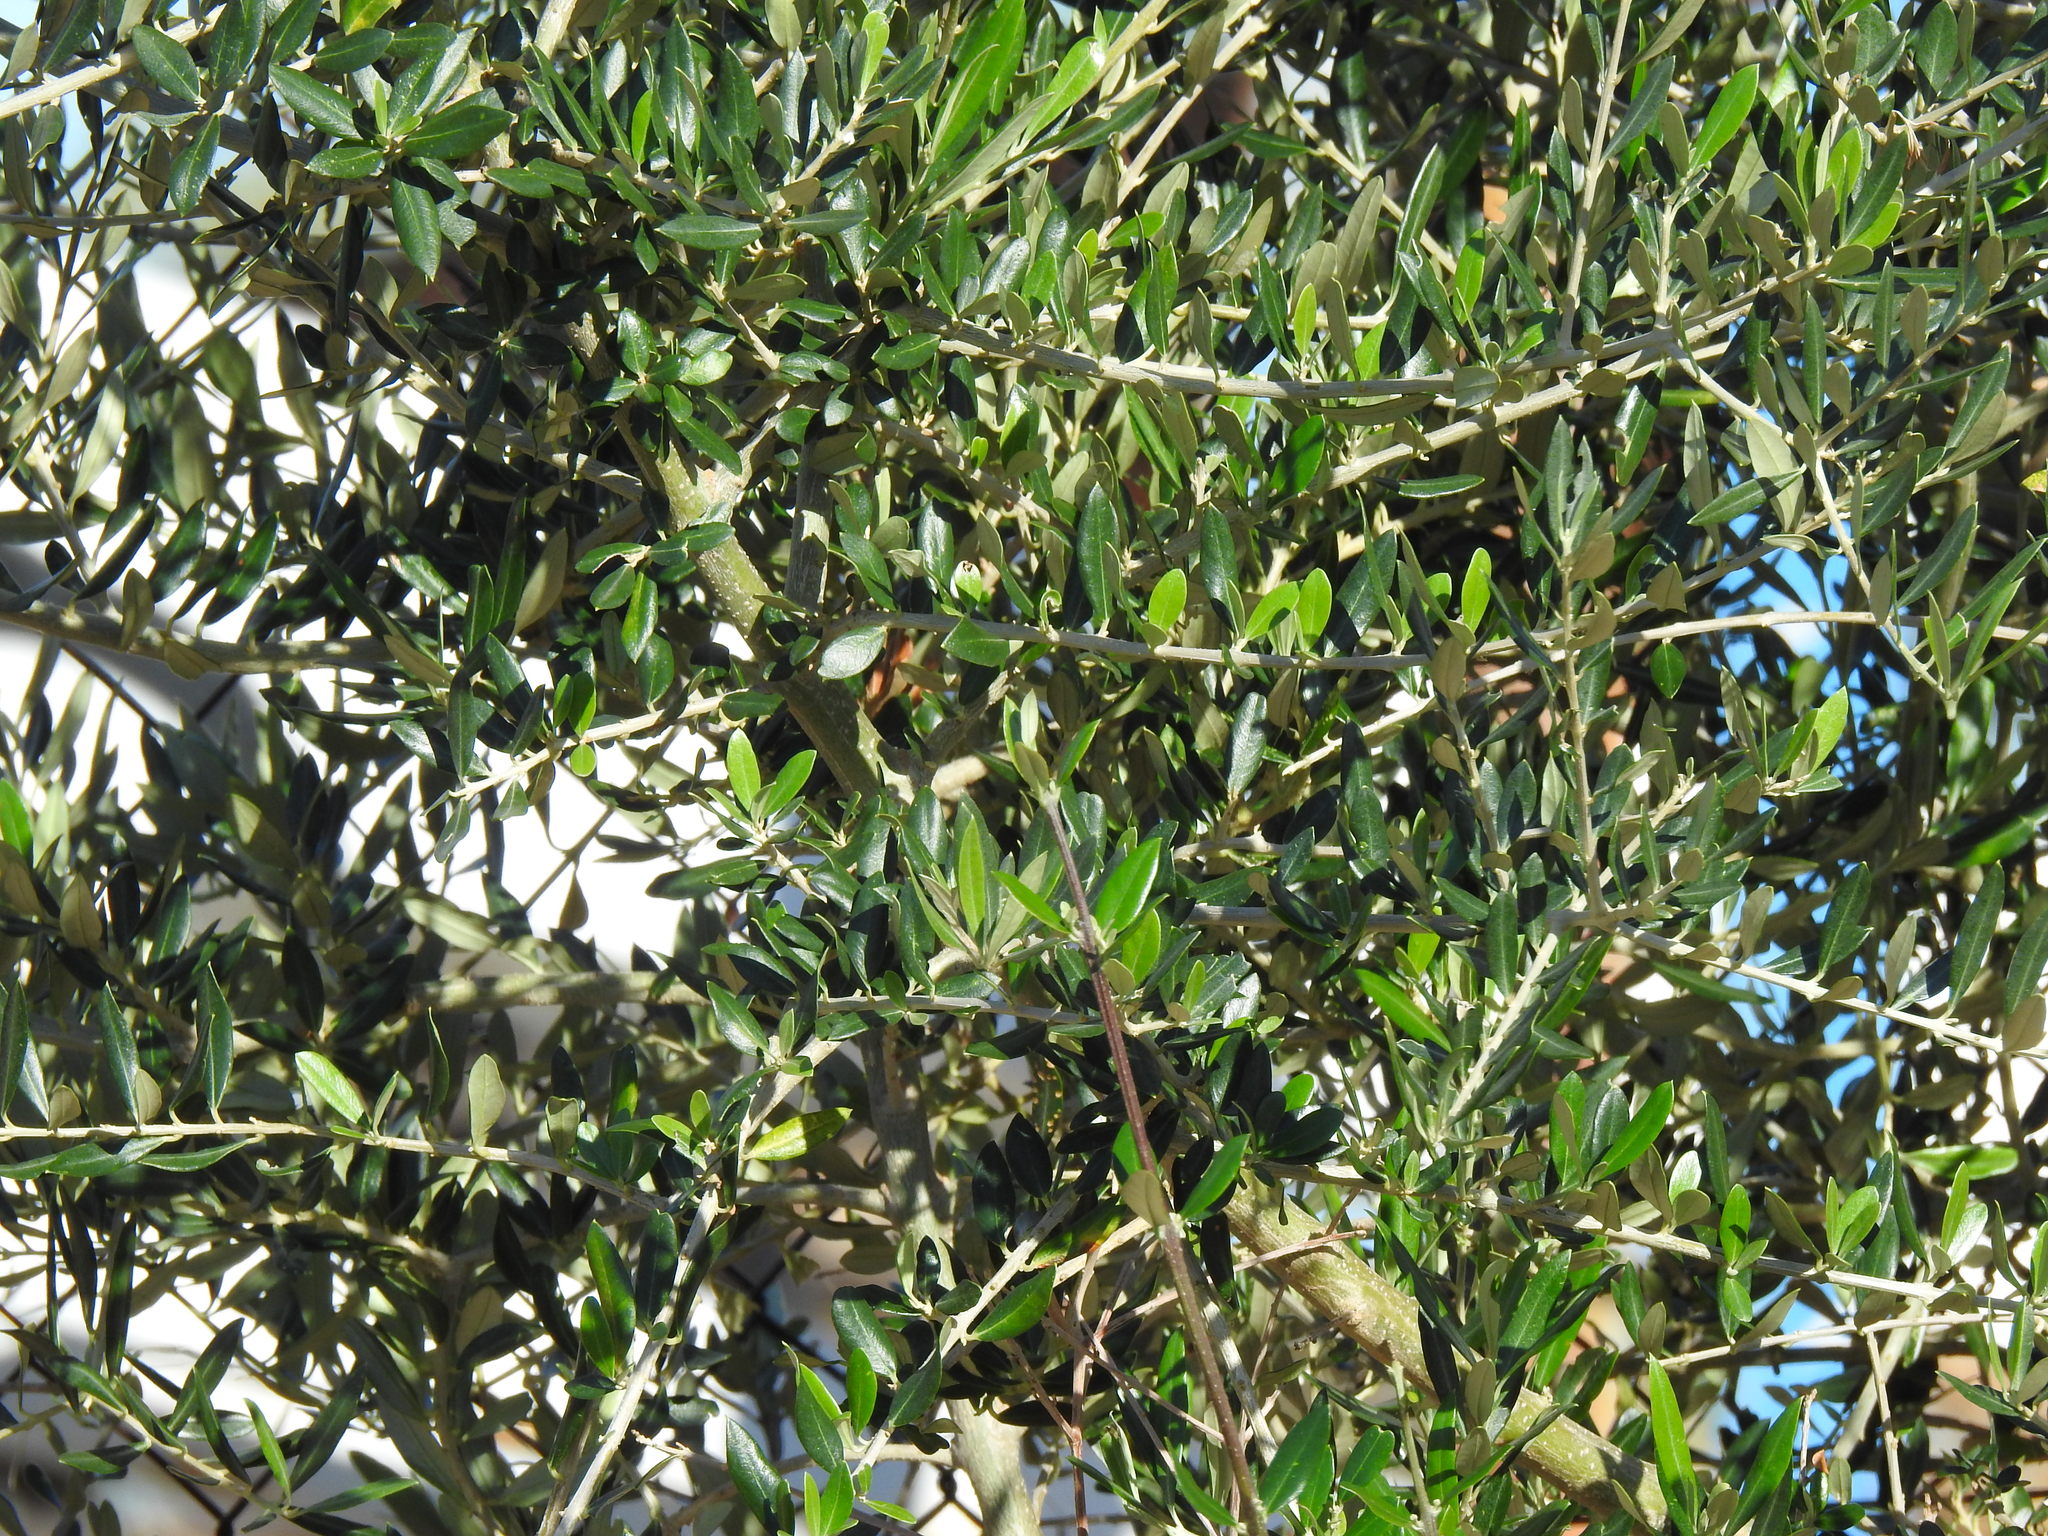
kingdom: Plantae
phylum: Tracheophyta
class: Magnoliopsida
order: Lamiales
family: Oleaceae
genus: Olea
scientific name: Olea europaea
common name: Olive
